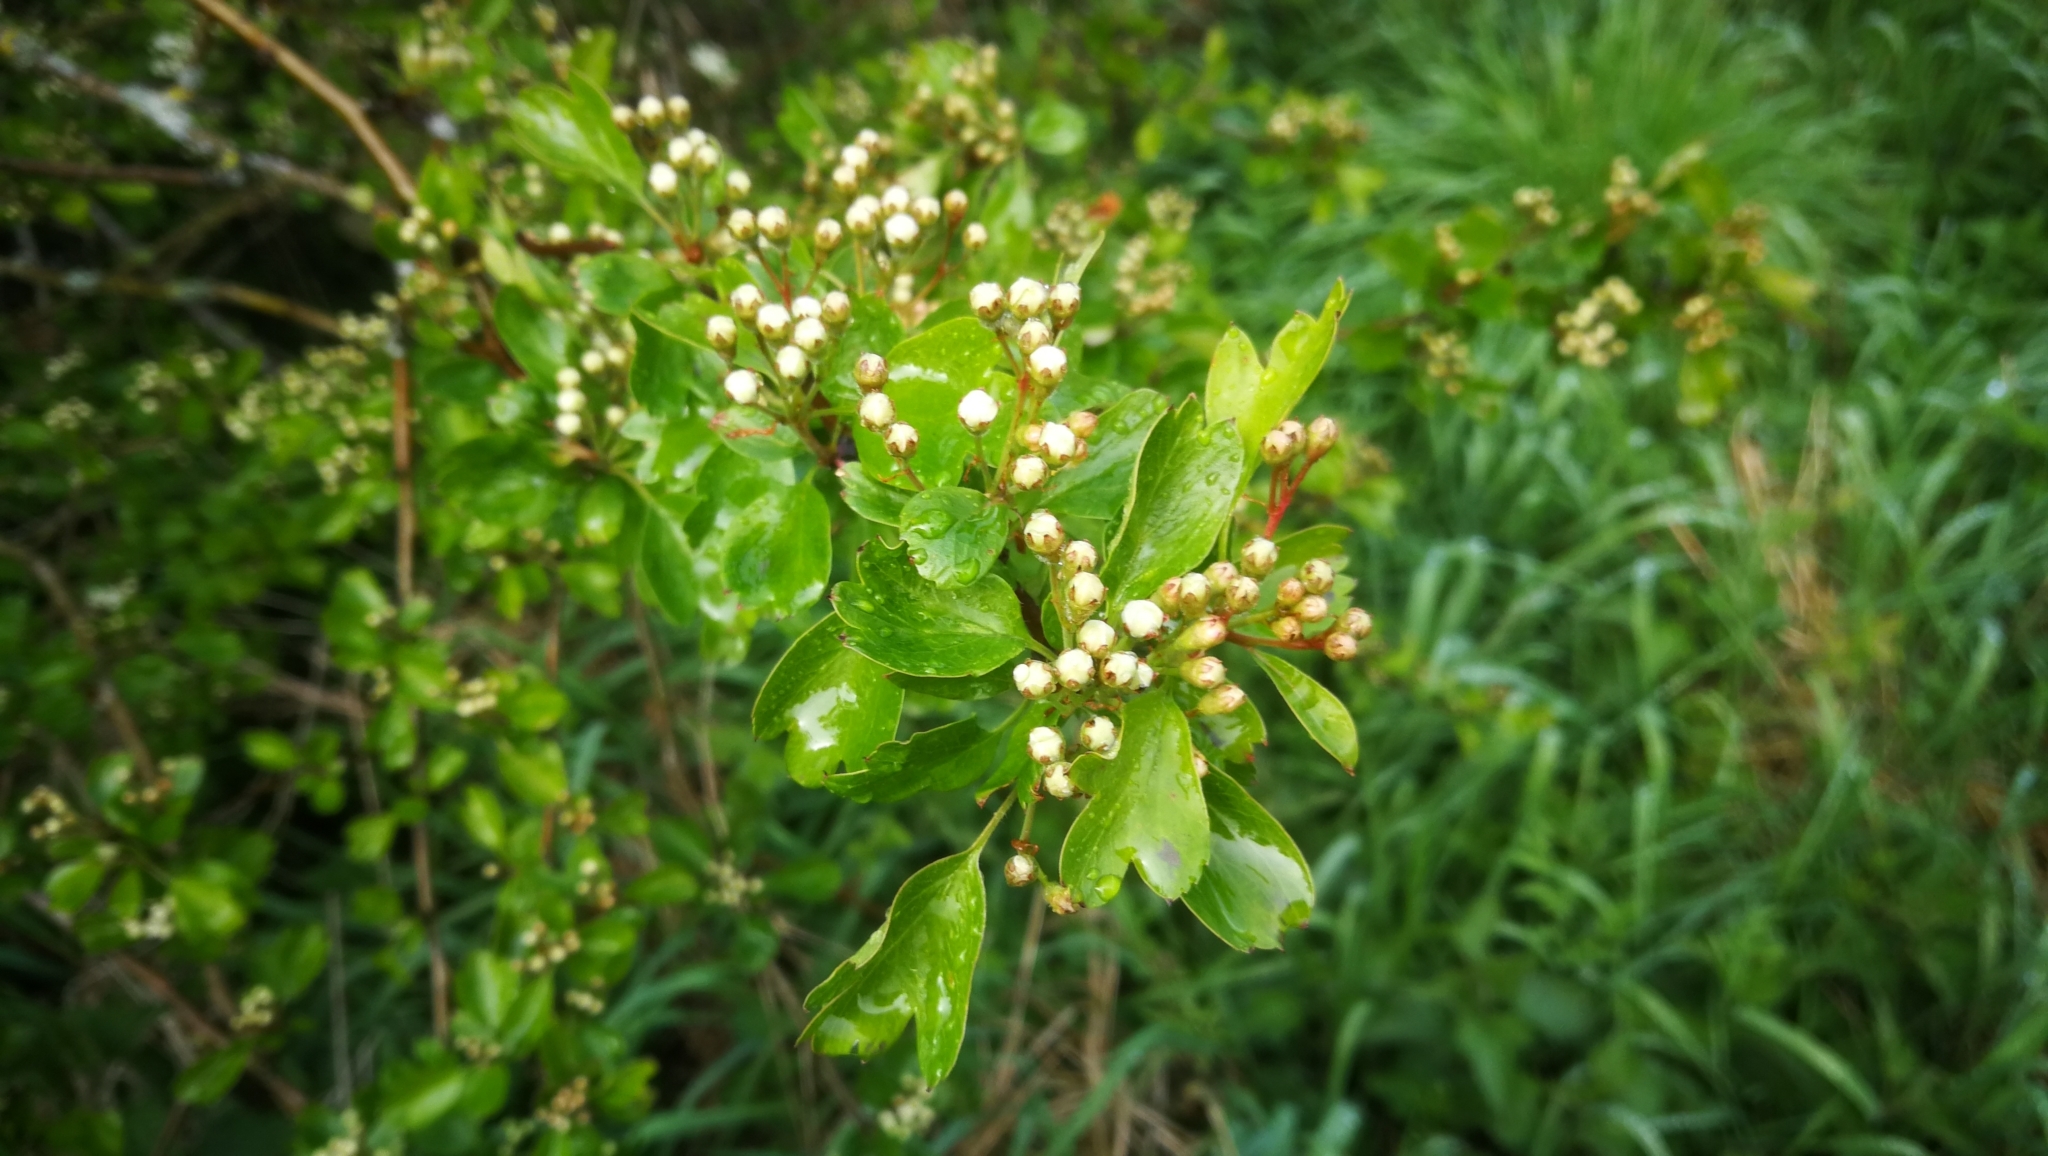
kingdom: Plantae
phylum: Tracheophyta
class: Magnoliopsida
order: Rosales
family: Rosaceae
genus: Crataegus
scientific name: Crataegus monogyna
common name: Hawthorn
